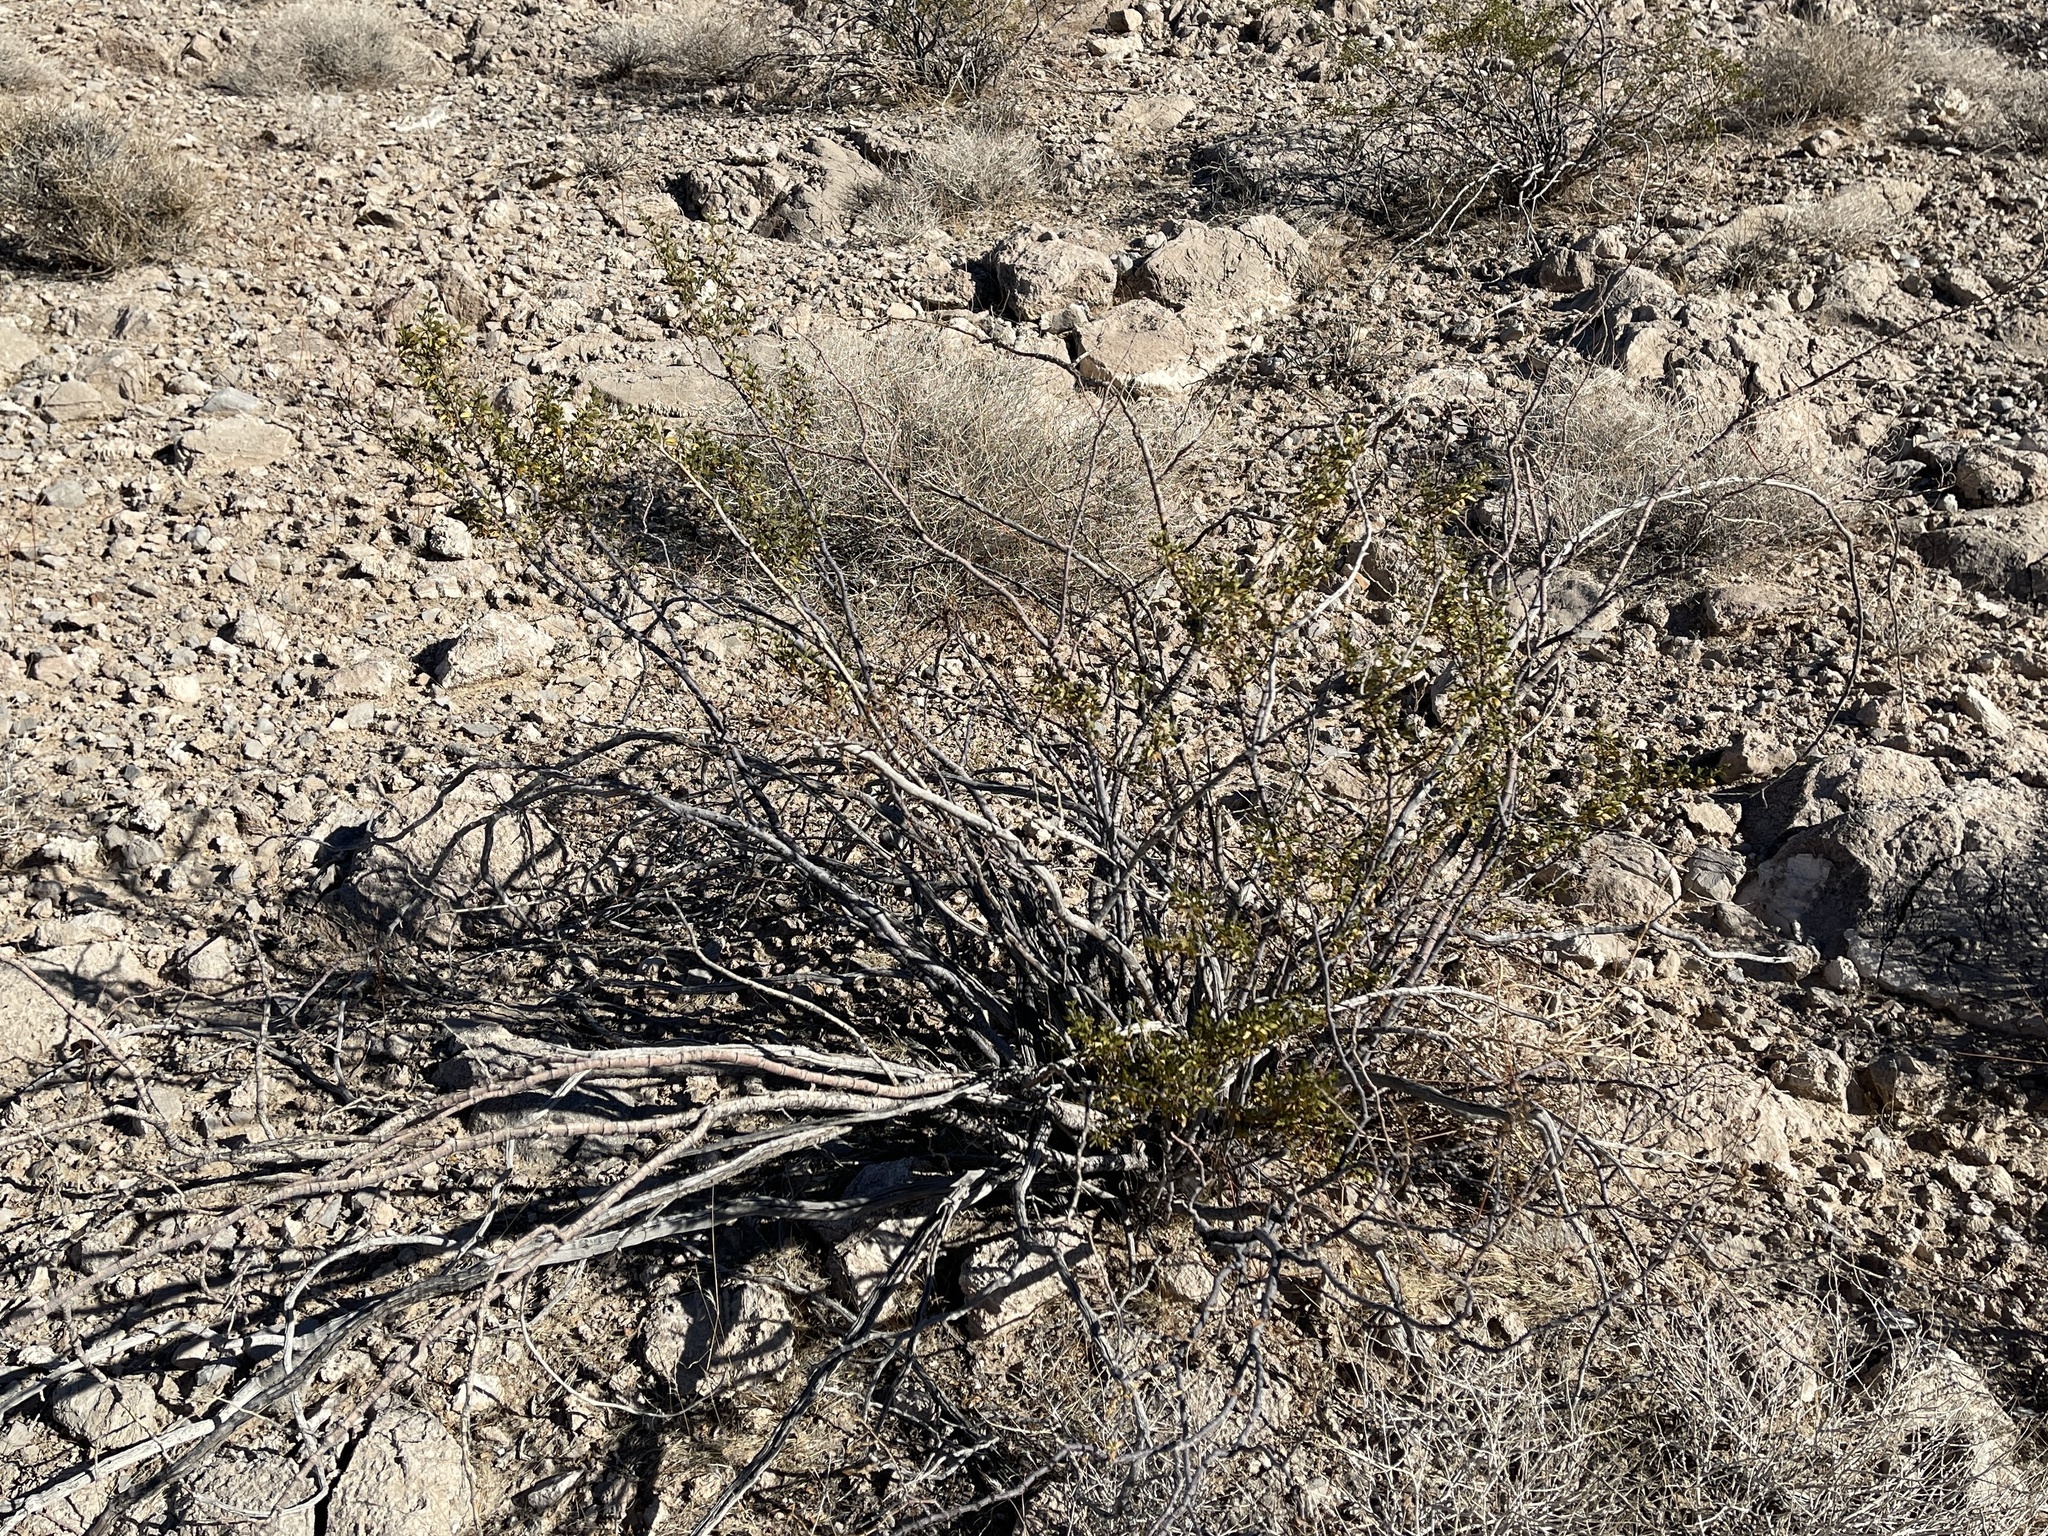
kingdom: Plantae
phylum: Tracheophyta
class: Magnoliopsida
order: Zygophyllales
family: Zygophyllaceae
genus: Larrea
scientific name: Larrea tridentata
